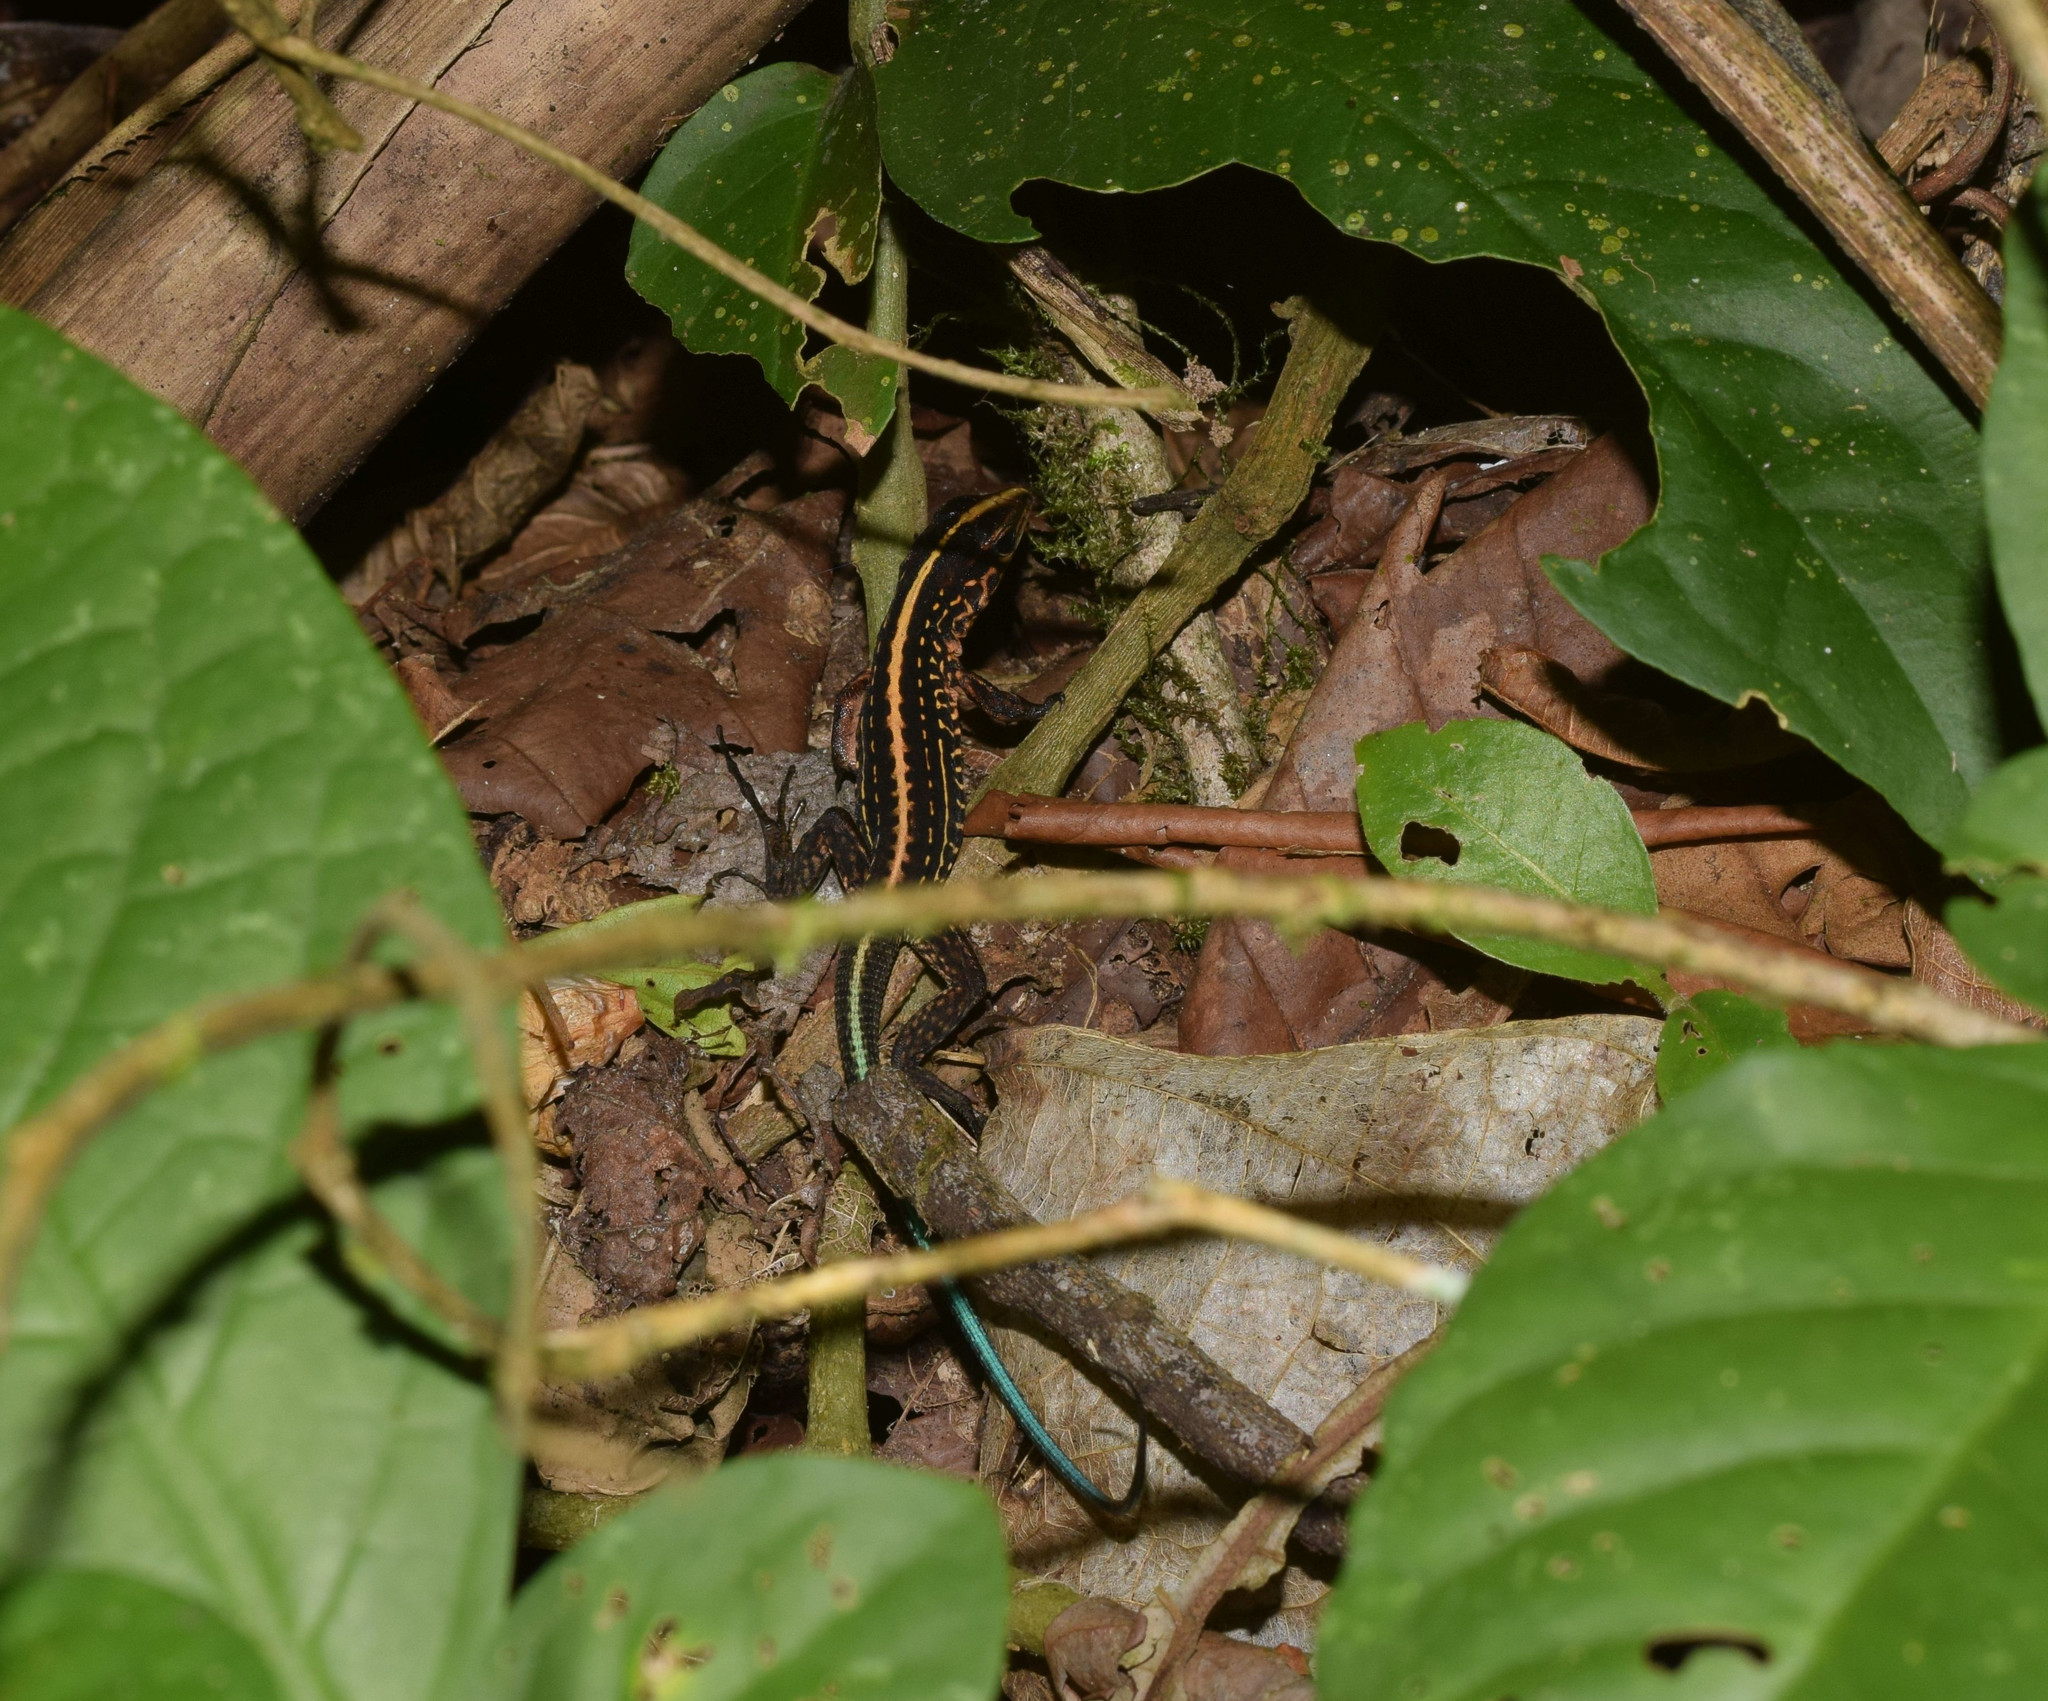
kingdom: Animalia
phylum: Chordata
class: Squamata
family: Teiidae
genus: Holcosus
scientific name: Holcosus festivus
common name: Middle american ameiva
